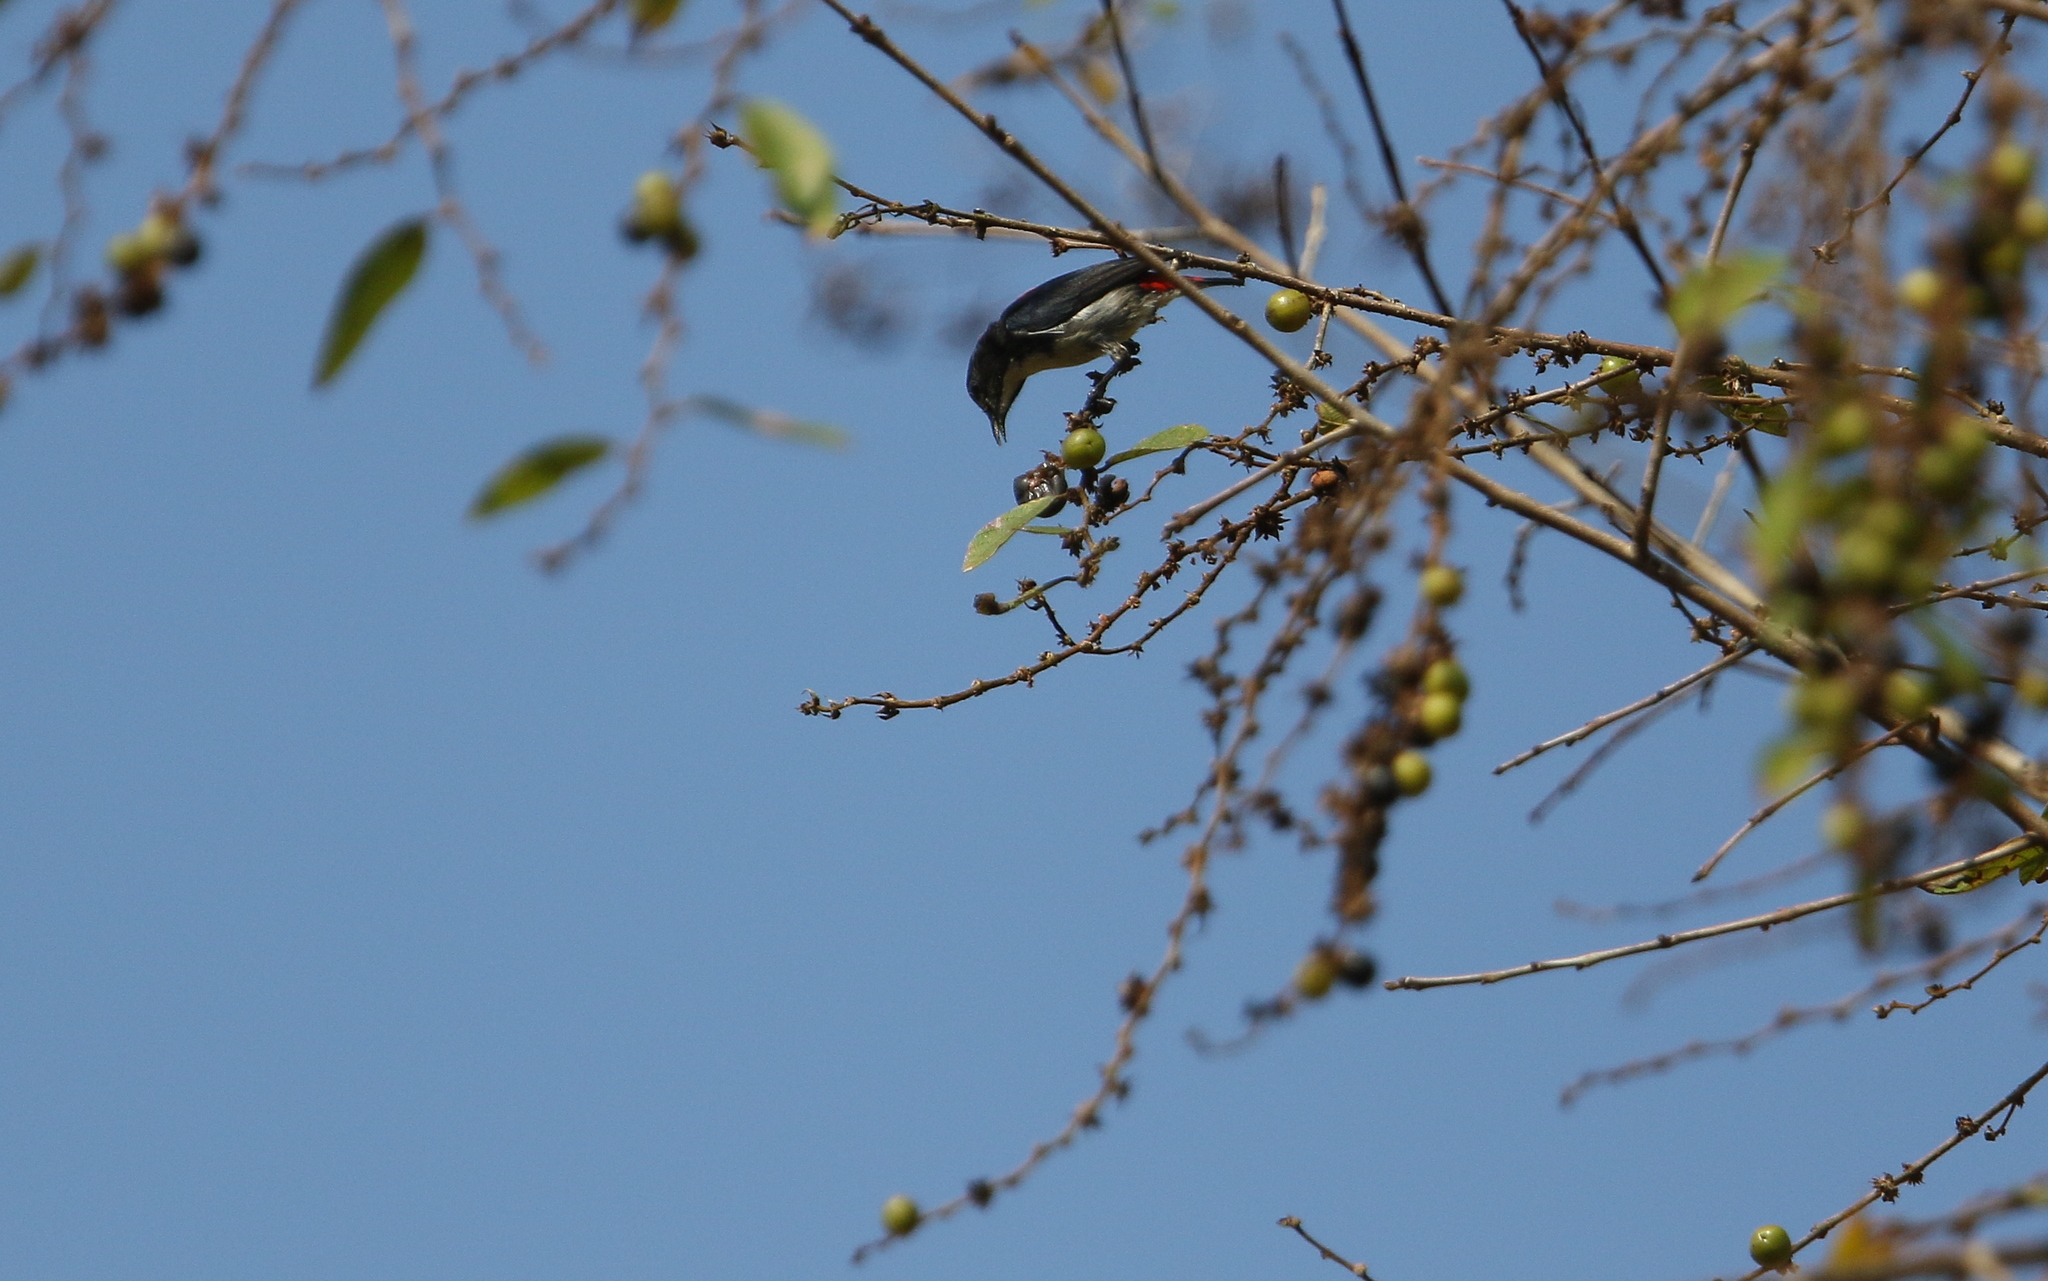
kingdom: Animalia
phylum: Chordata
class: Aves
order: Passeriformes
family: Dicaeidae
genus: Dicaeum
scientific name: Dicaeum cruentatum
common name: Scarlet-backed flowerpecker
